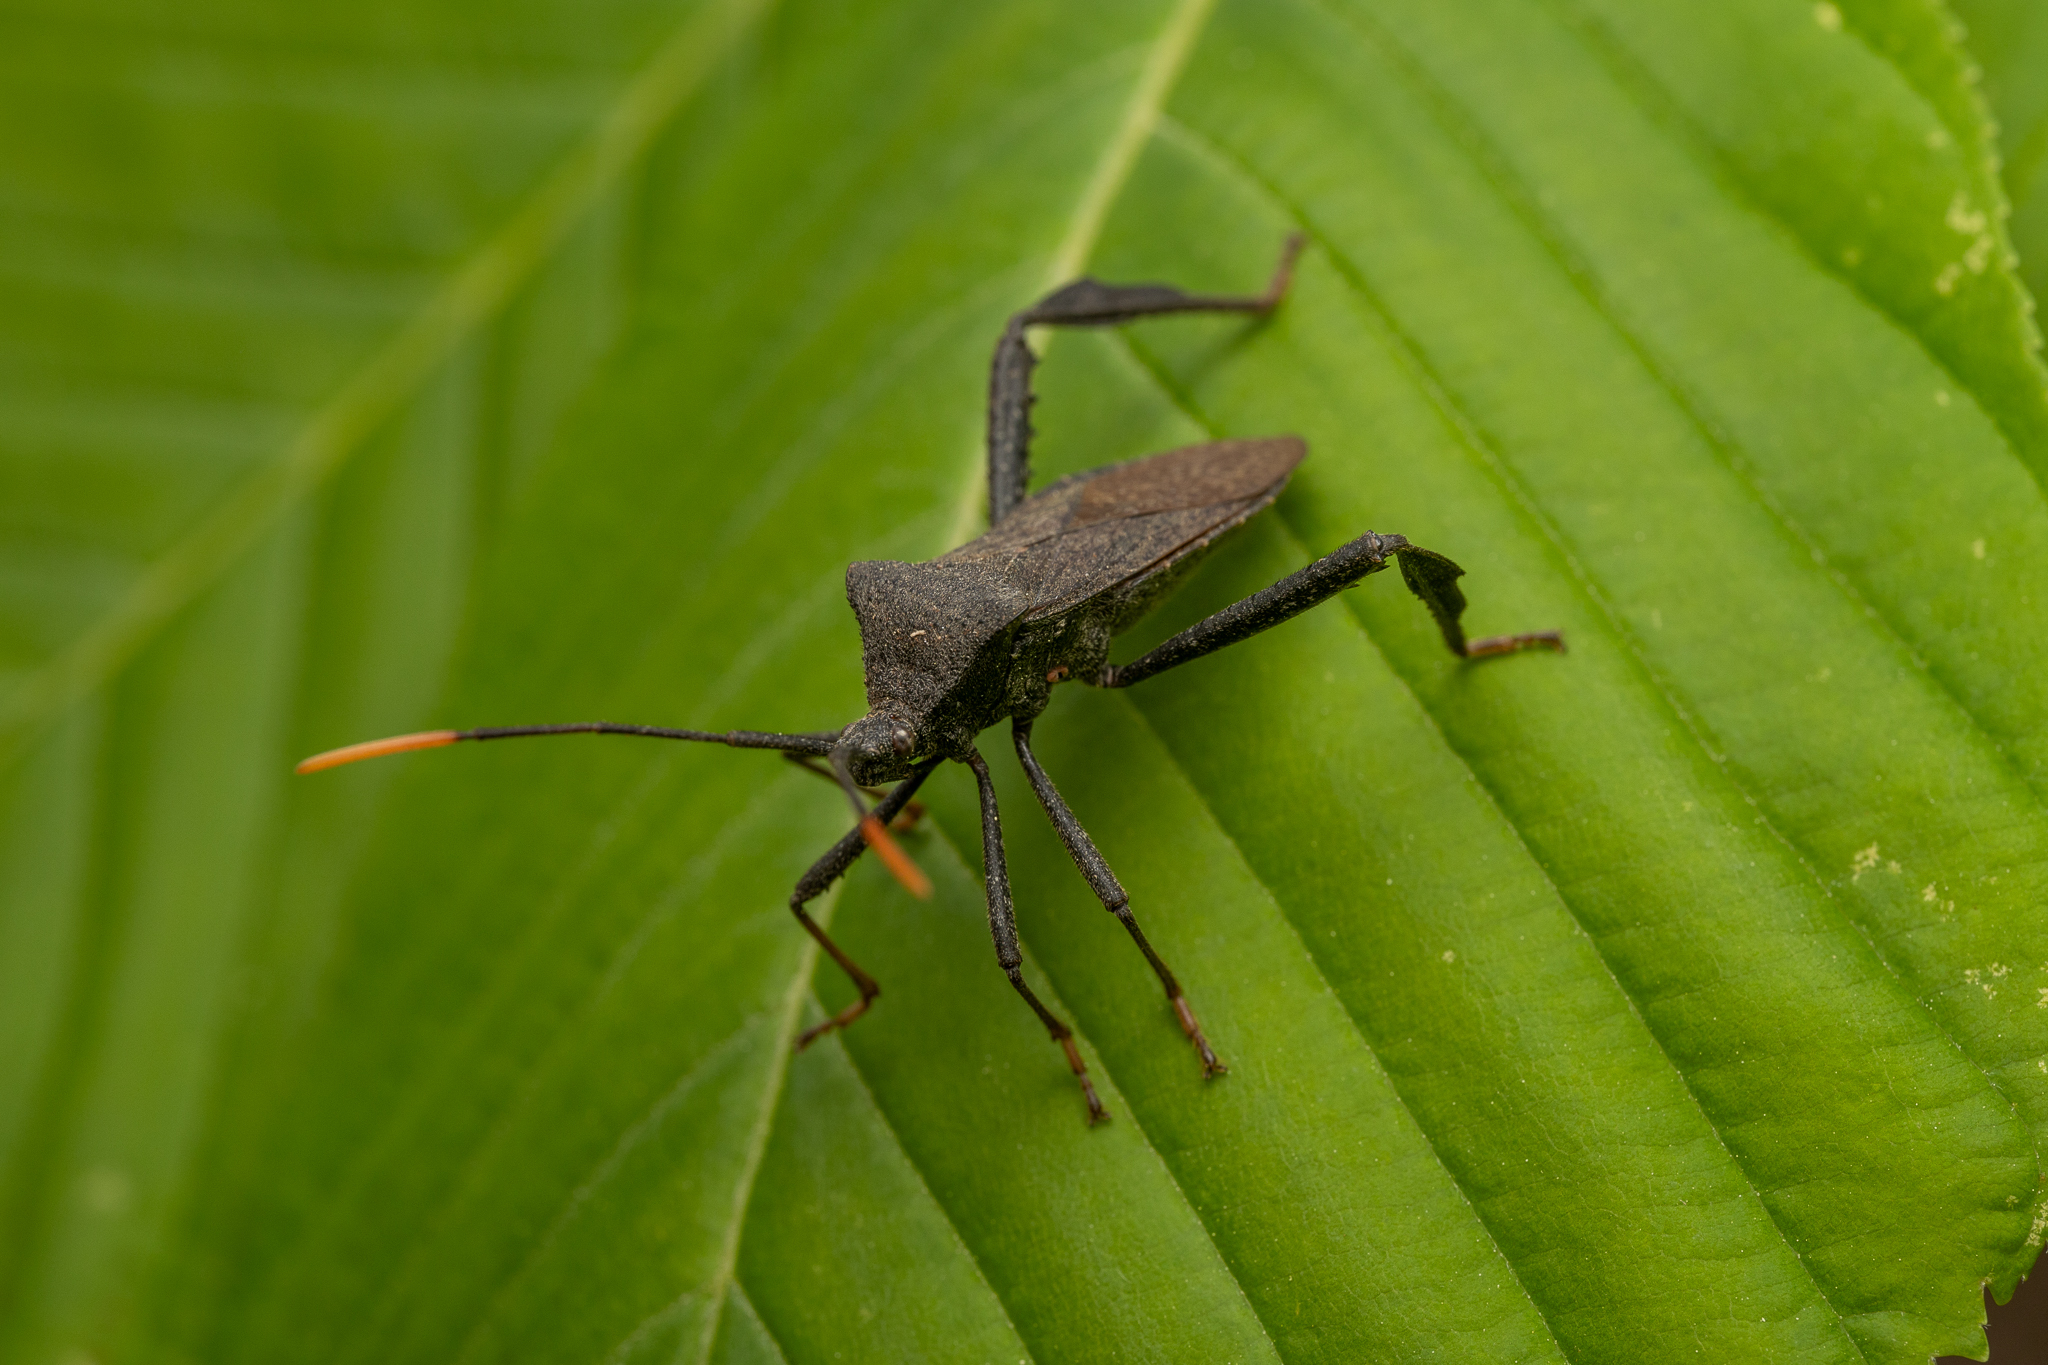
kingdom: Animalia
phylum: Arthropoda
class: Insecta
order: Hemiptera
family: Coreidae
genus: Acanthocephala
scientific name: Acanthocephala terminalis
